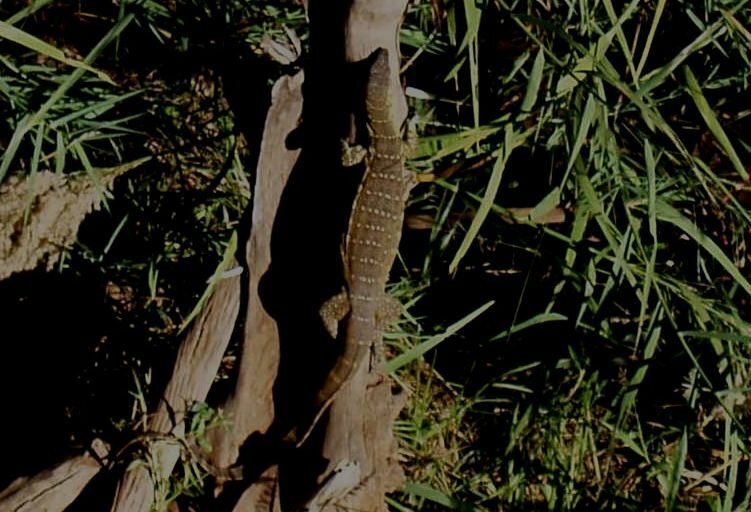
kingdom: Animalia
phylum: Chordata
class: Squamata
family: Varanidae
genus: Varanus
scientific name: Varanus niloticus
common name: Nile monitor
